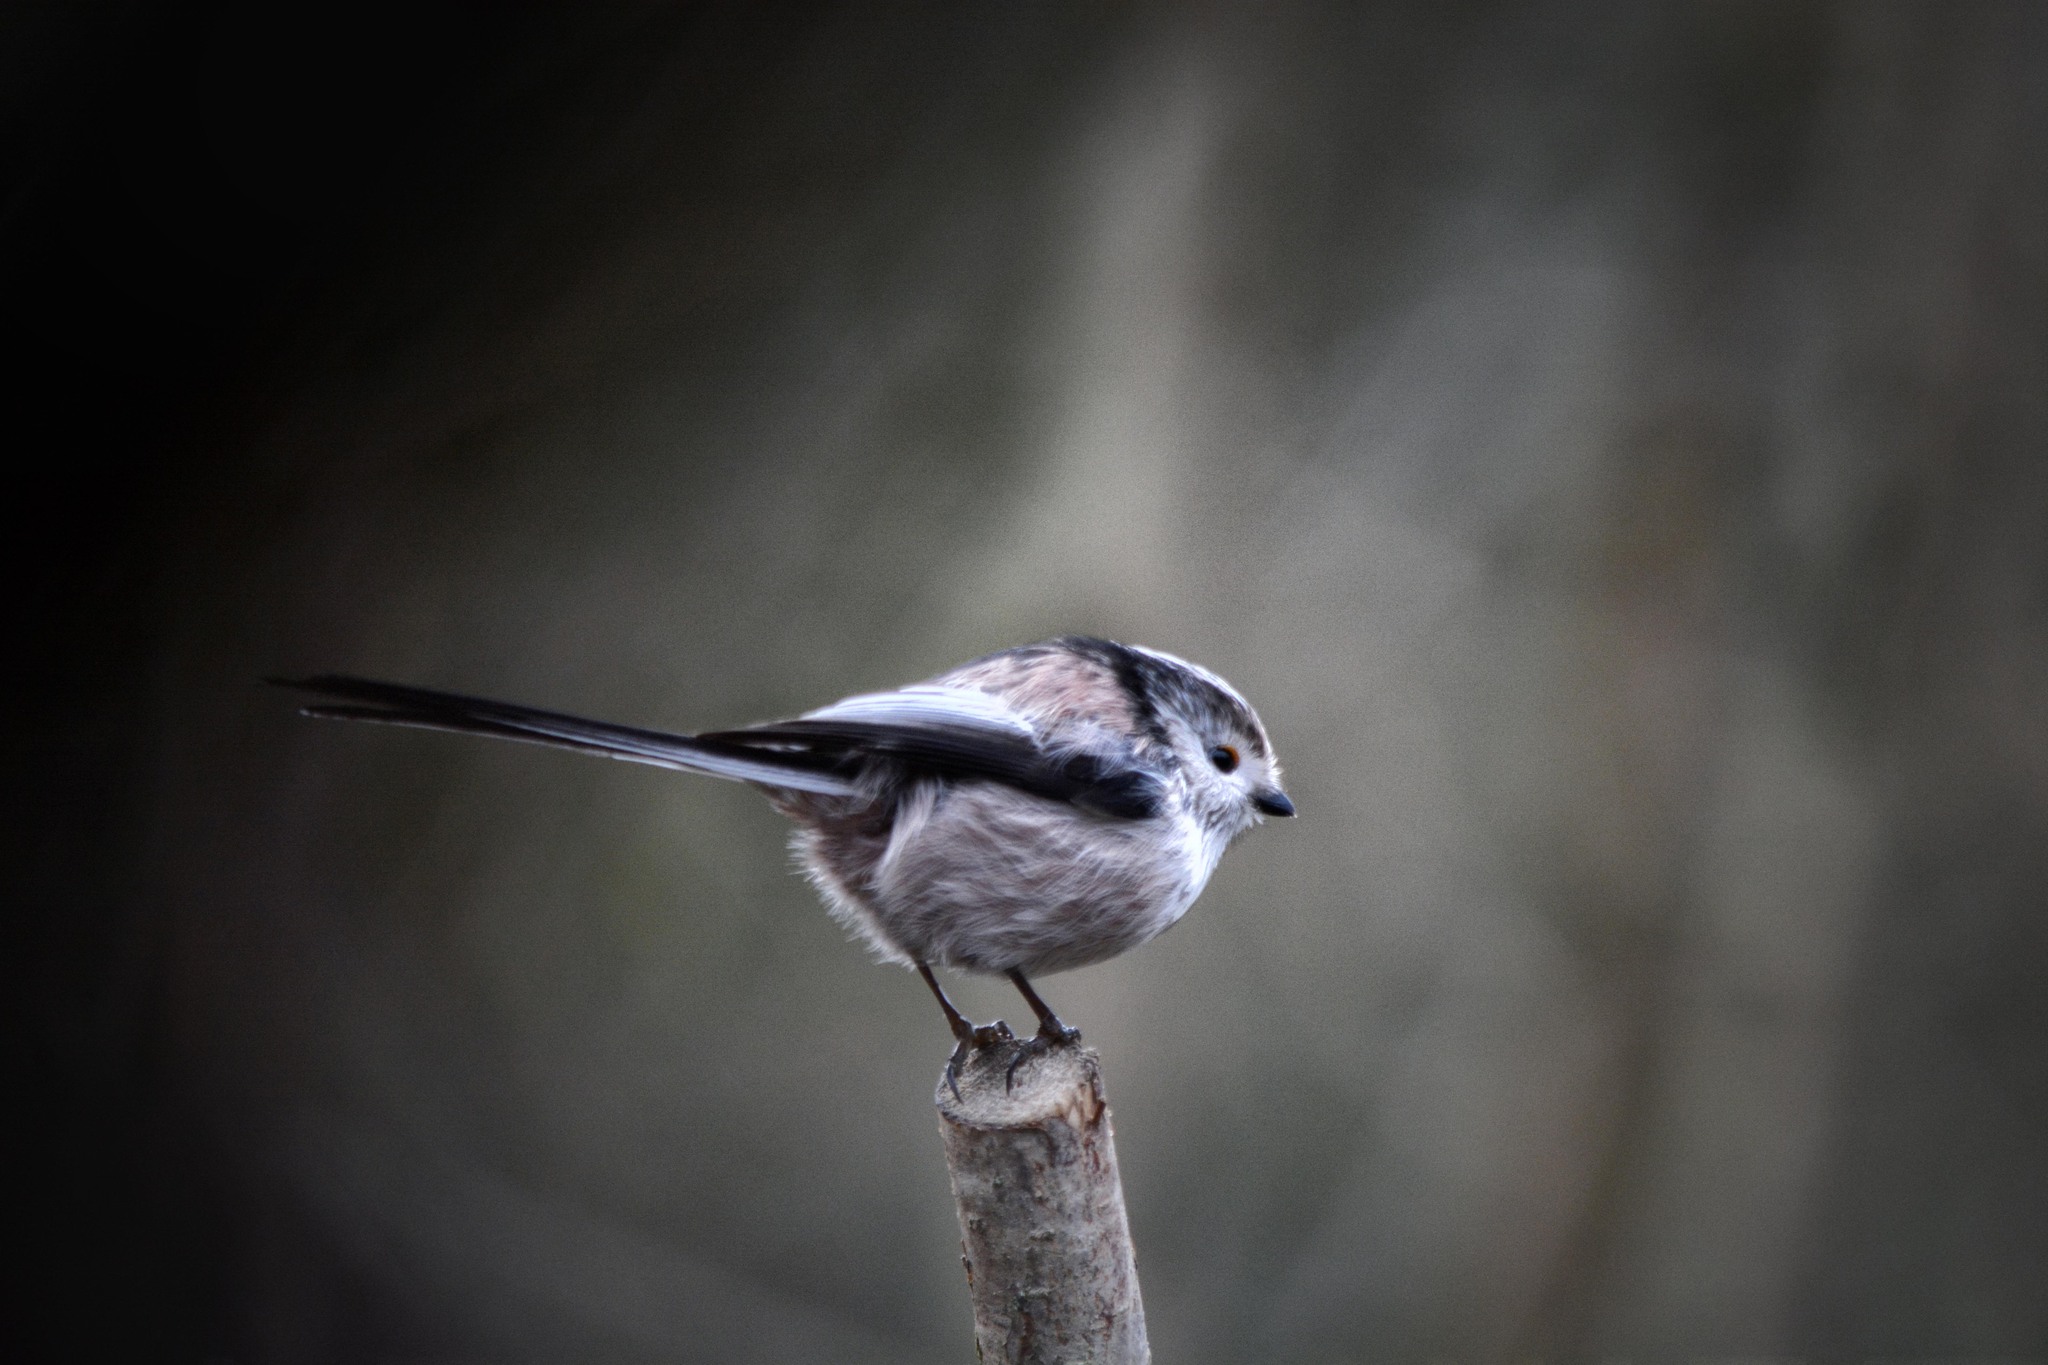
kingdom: Animalia
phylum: Chordata
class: Aves
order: Passeriformes
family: Aegithalidae
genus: Aegithalos
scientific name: Aegithalos caudatus
